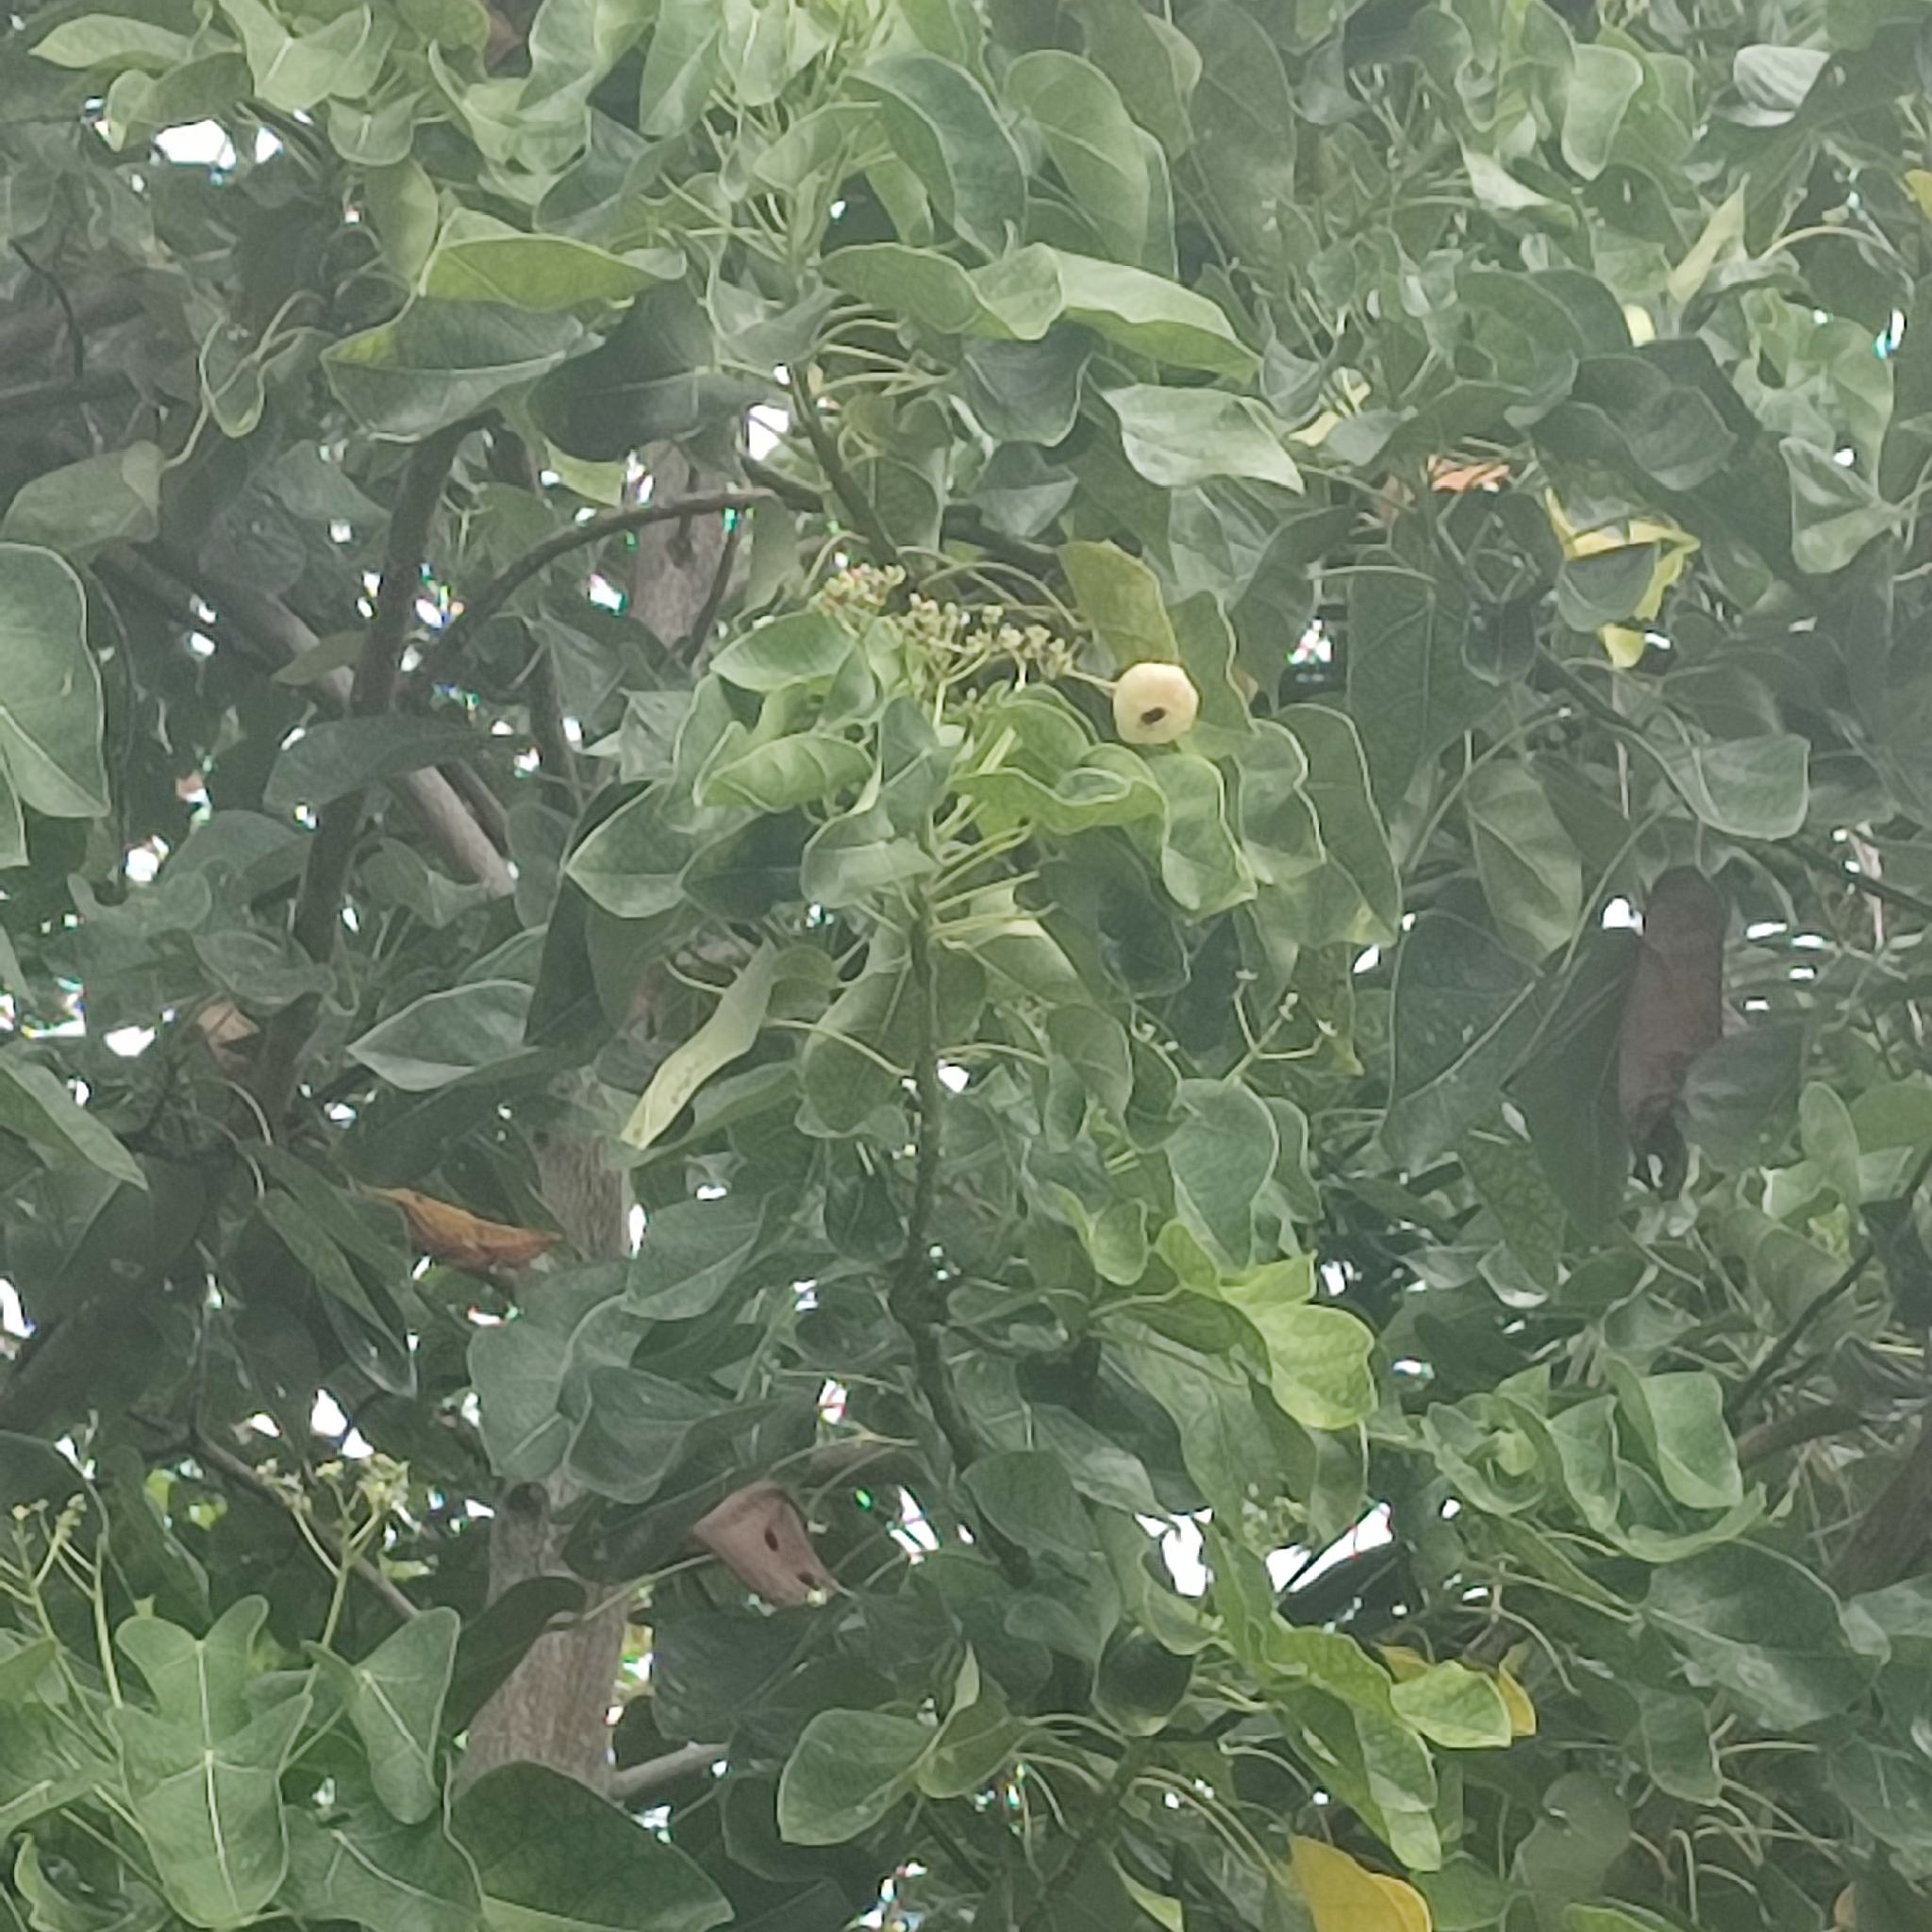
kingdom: Plantae
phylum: Tracheophyta
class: Magnoliopsida
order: Laurales
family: Hernandiaceae
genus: Hernandia
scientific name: Hernandia nymphaeifolia
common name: Sea hearse
